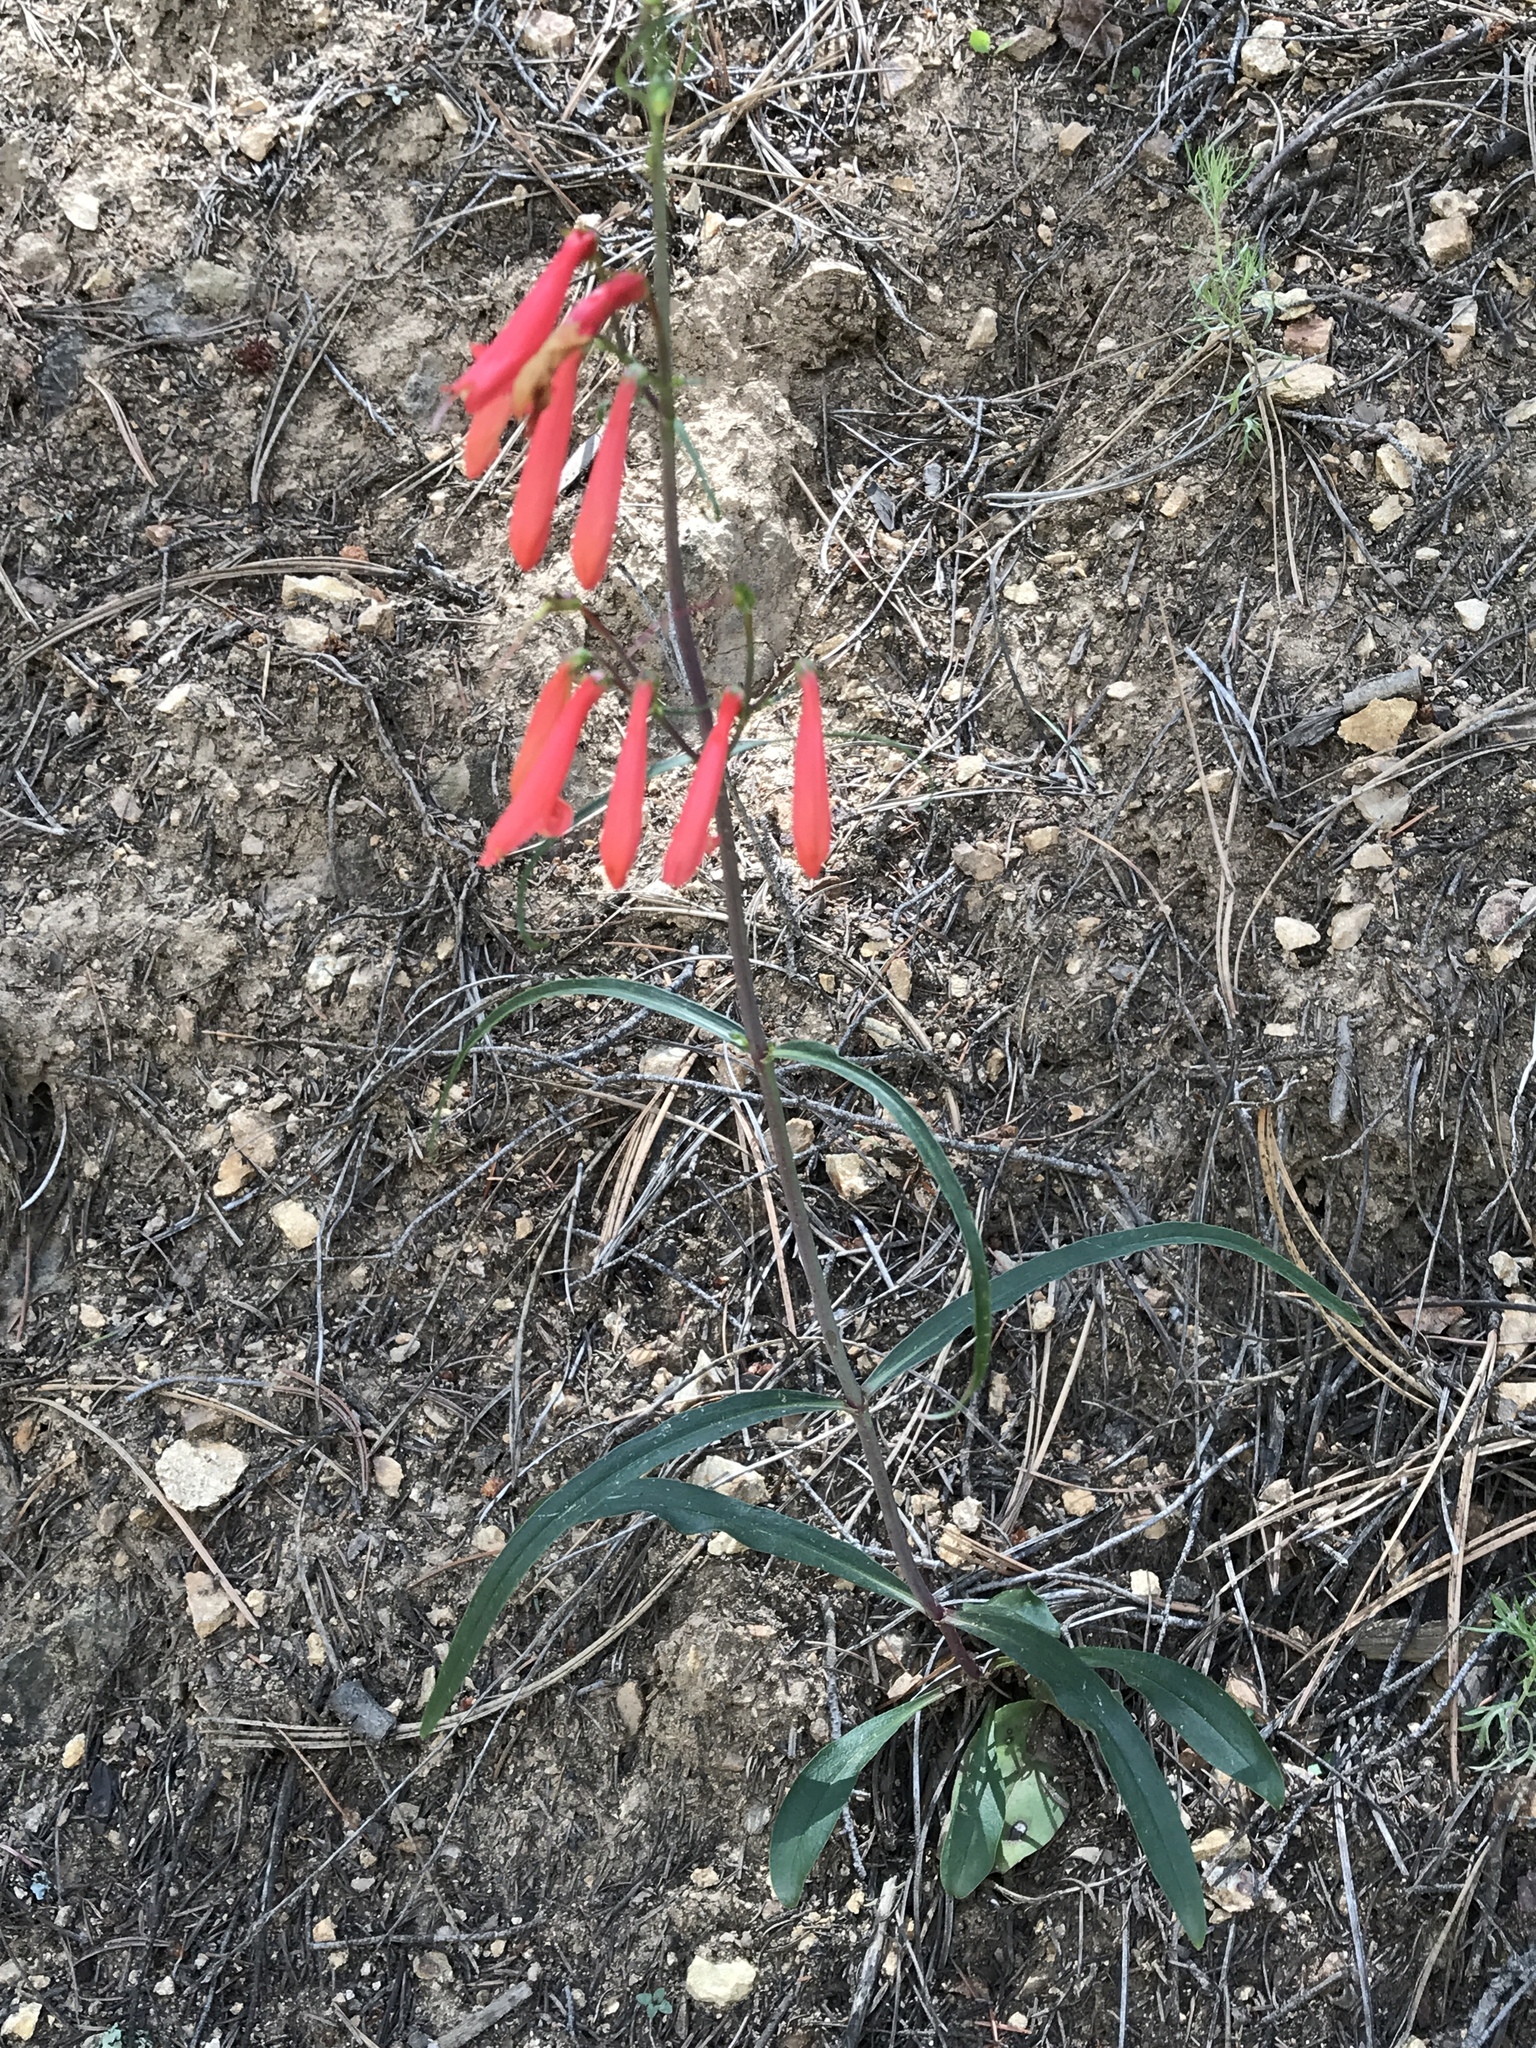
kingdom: Plantae
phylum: Tracheophyta
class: Magnoliopsida
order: Lamiales
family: Plantaginaceae
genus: Penstemon
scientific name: Penstemon barbatus
